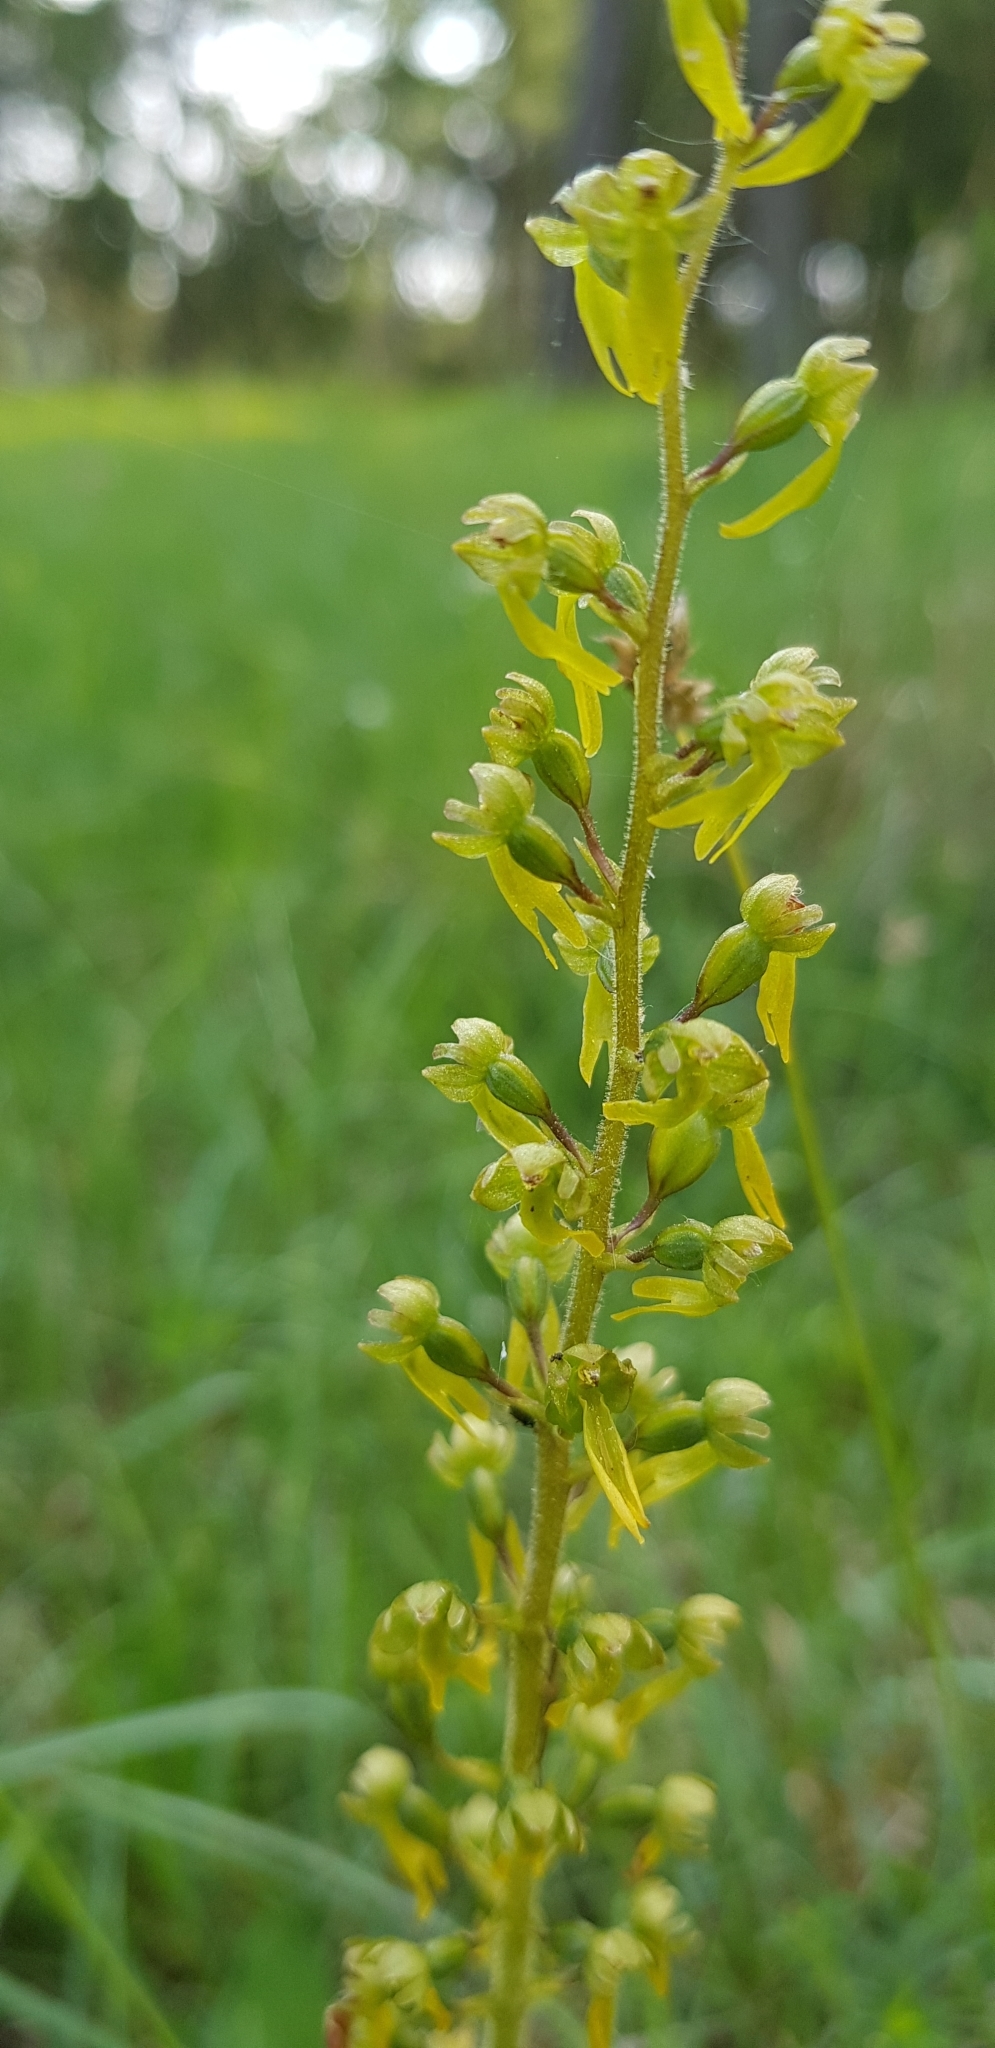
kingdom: Plantae
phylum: Tracheophyta
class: Liliopsida
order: Asparagales
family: Orchidaceae
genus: Neottia
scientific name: Neottia ovata
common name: Common twayblade
